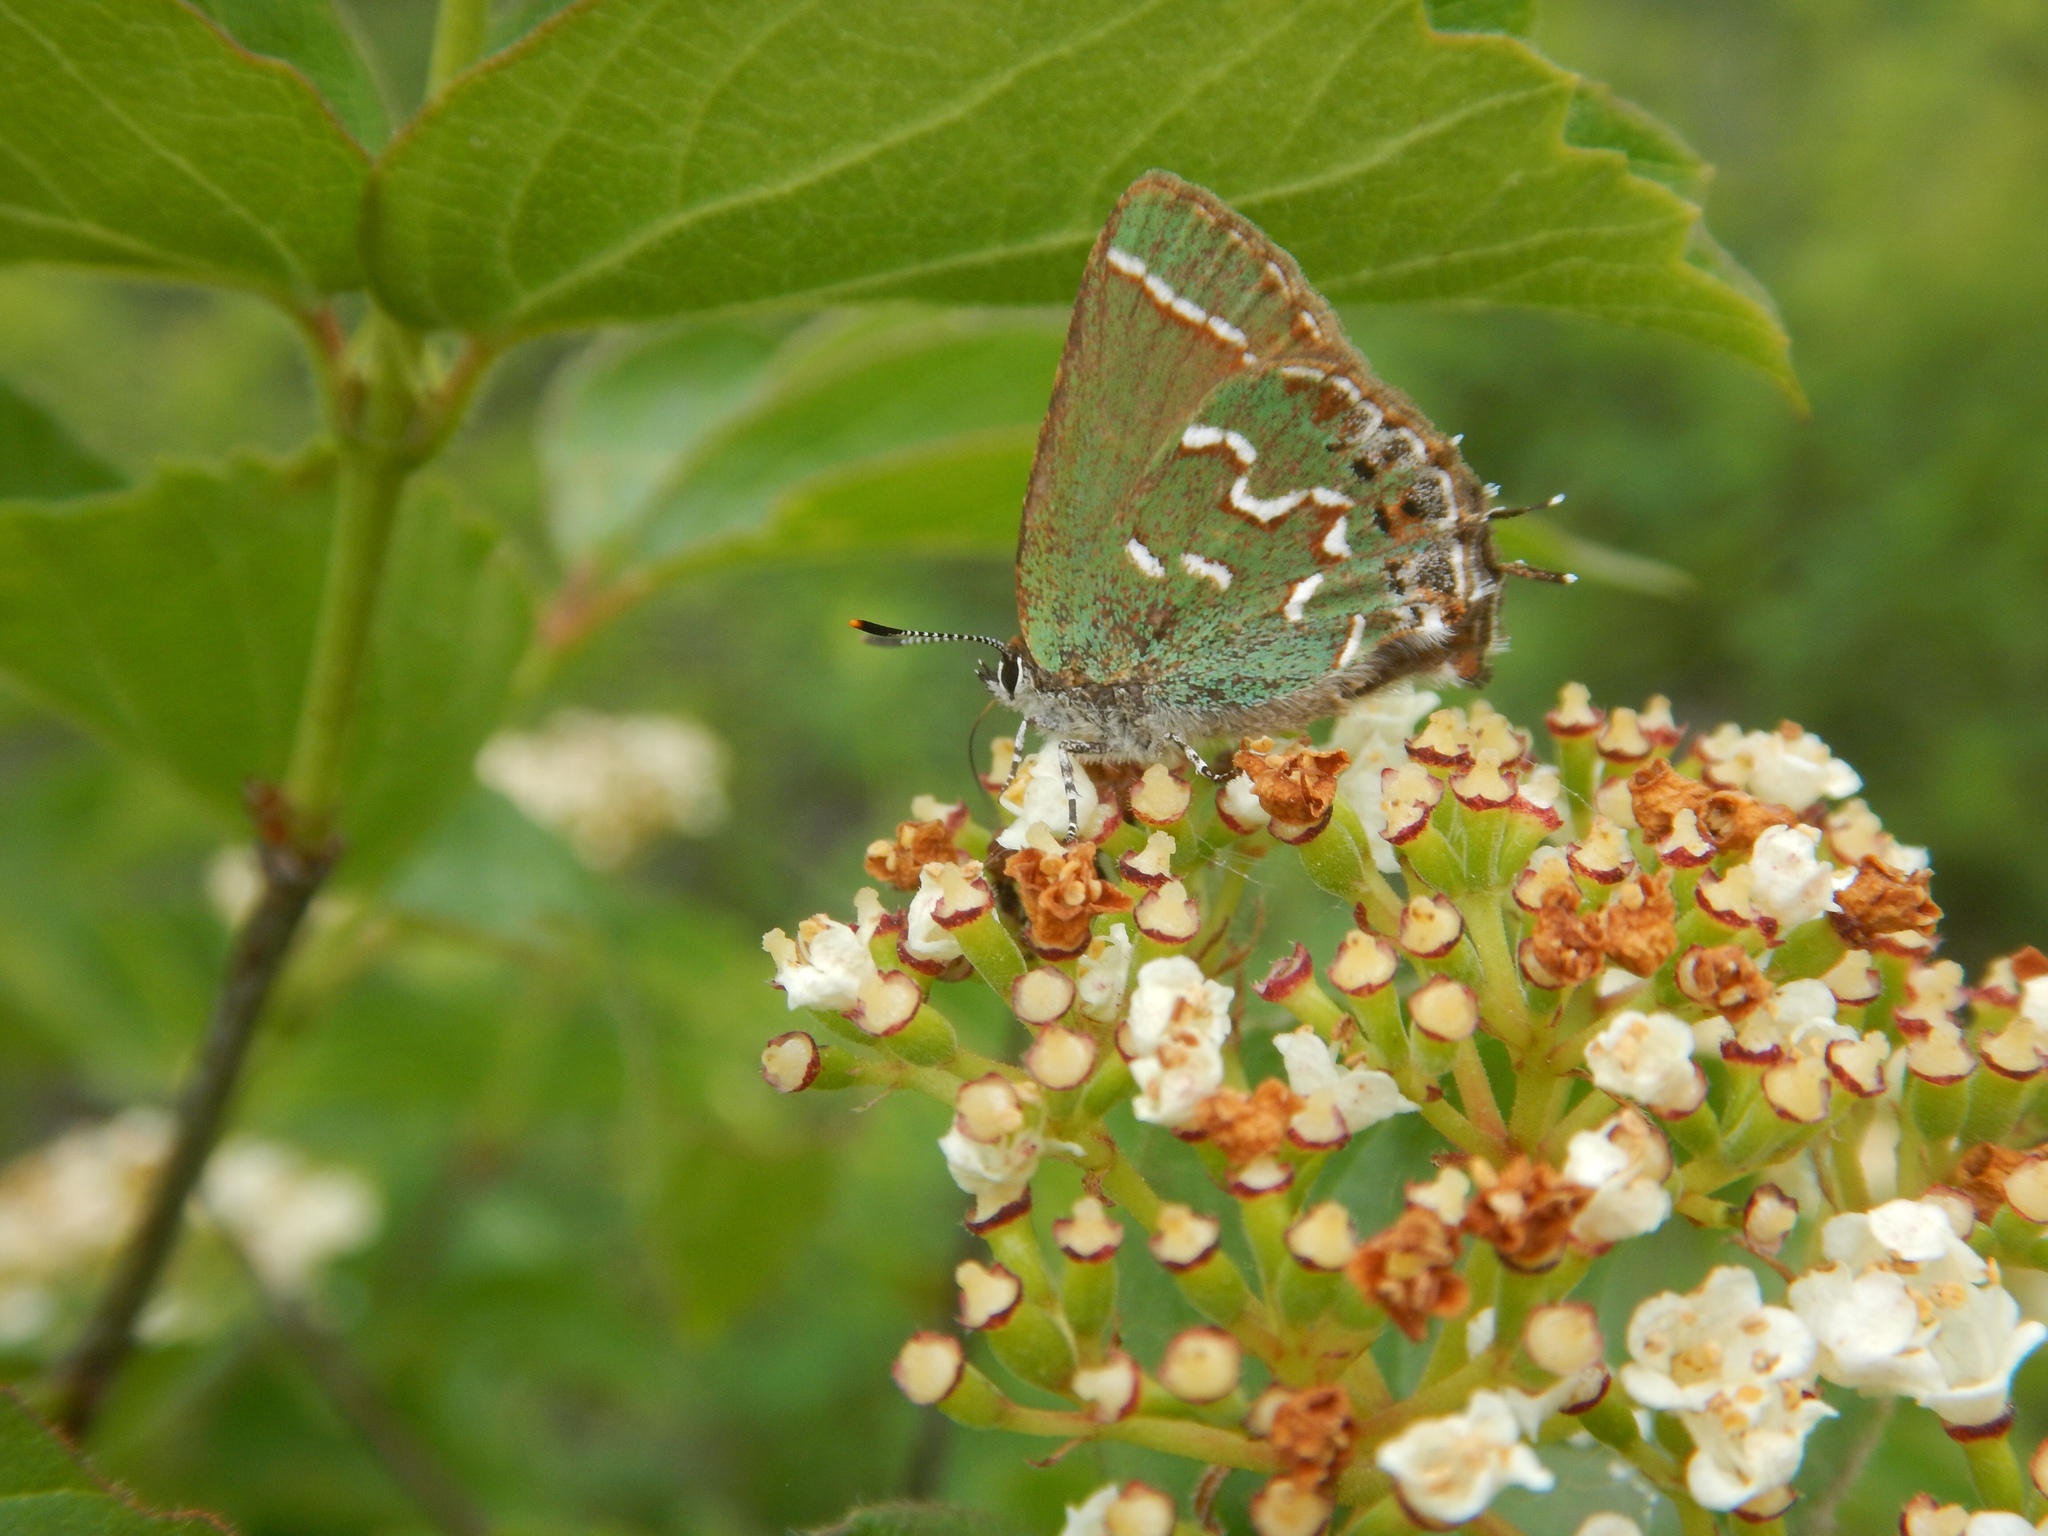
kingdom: Animalia
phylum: Arthropoda
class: Insecta
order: Lepidoptera
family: Lycaenidae
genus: Mitoura
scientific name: Mitoura gryneus
